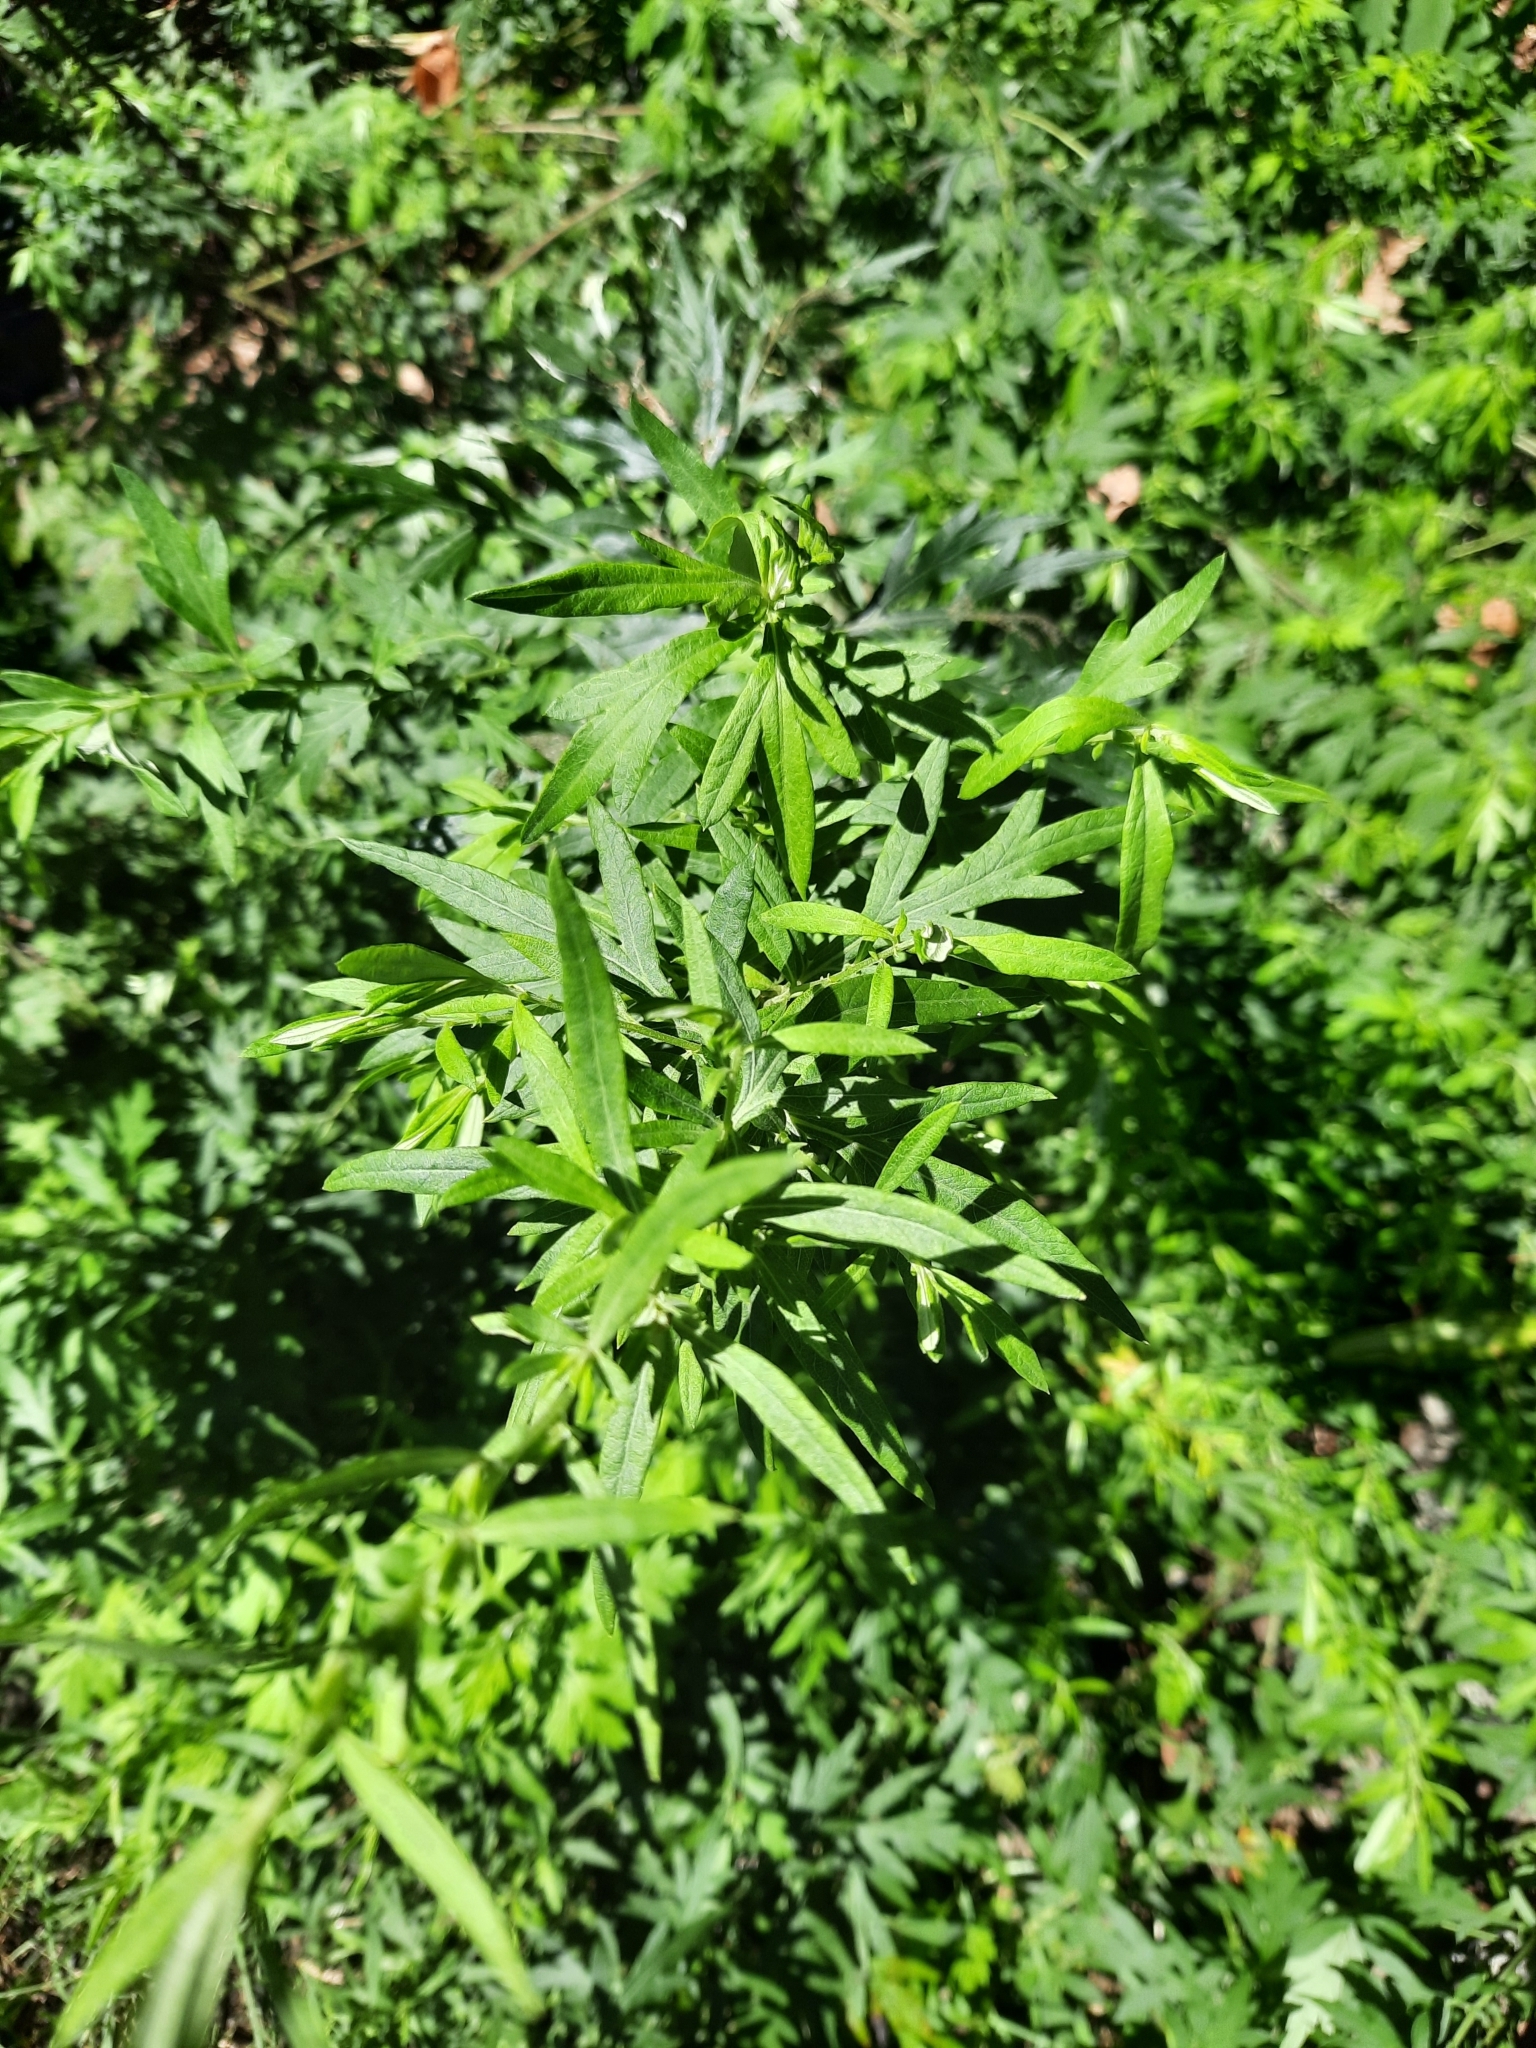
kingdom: Plantae
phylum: Tracheophyta
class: Magnoliopsida
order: Asterales
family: Asteraceae
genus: Artemisia
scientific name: Artemisia vulgaris
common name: Mugwort
